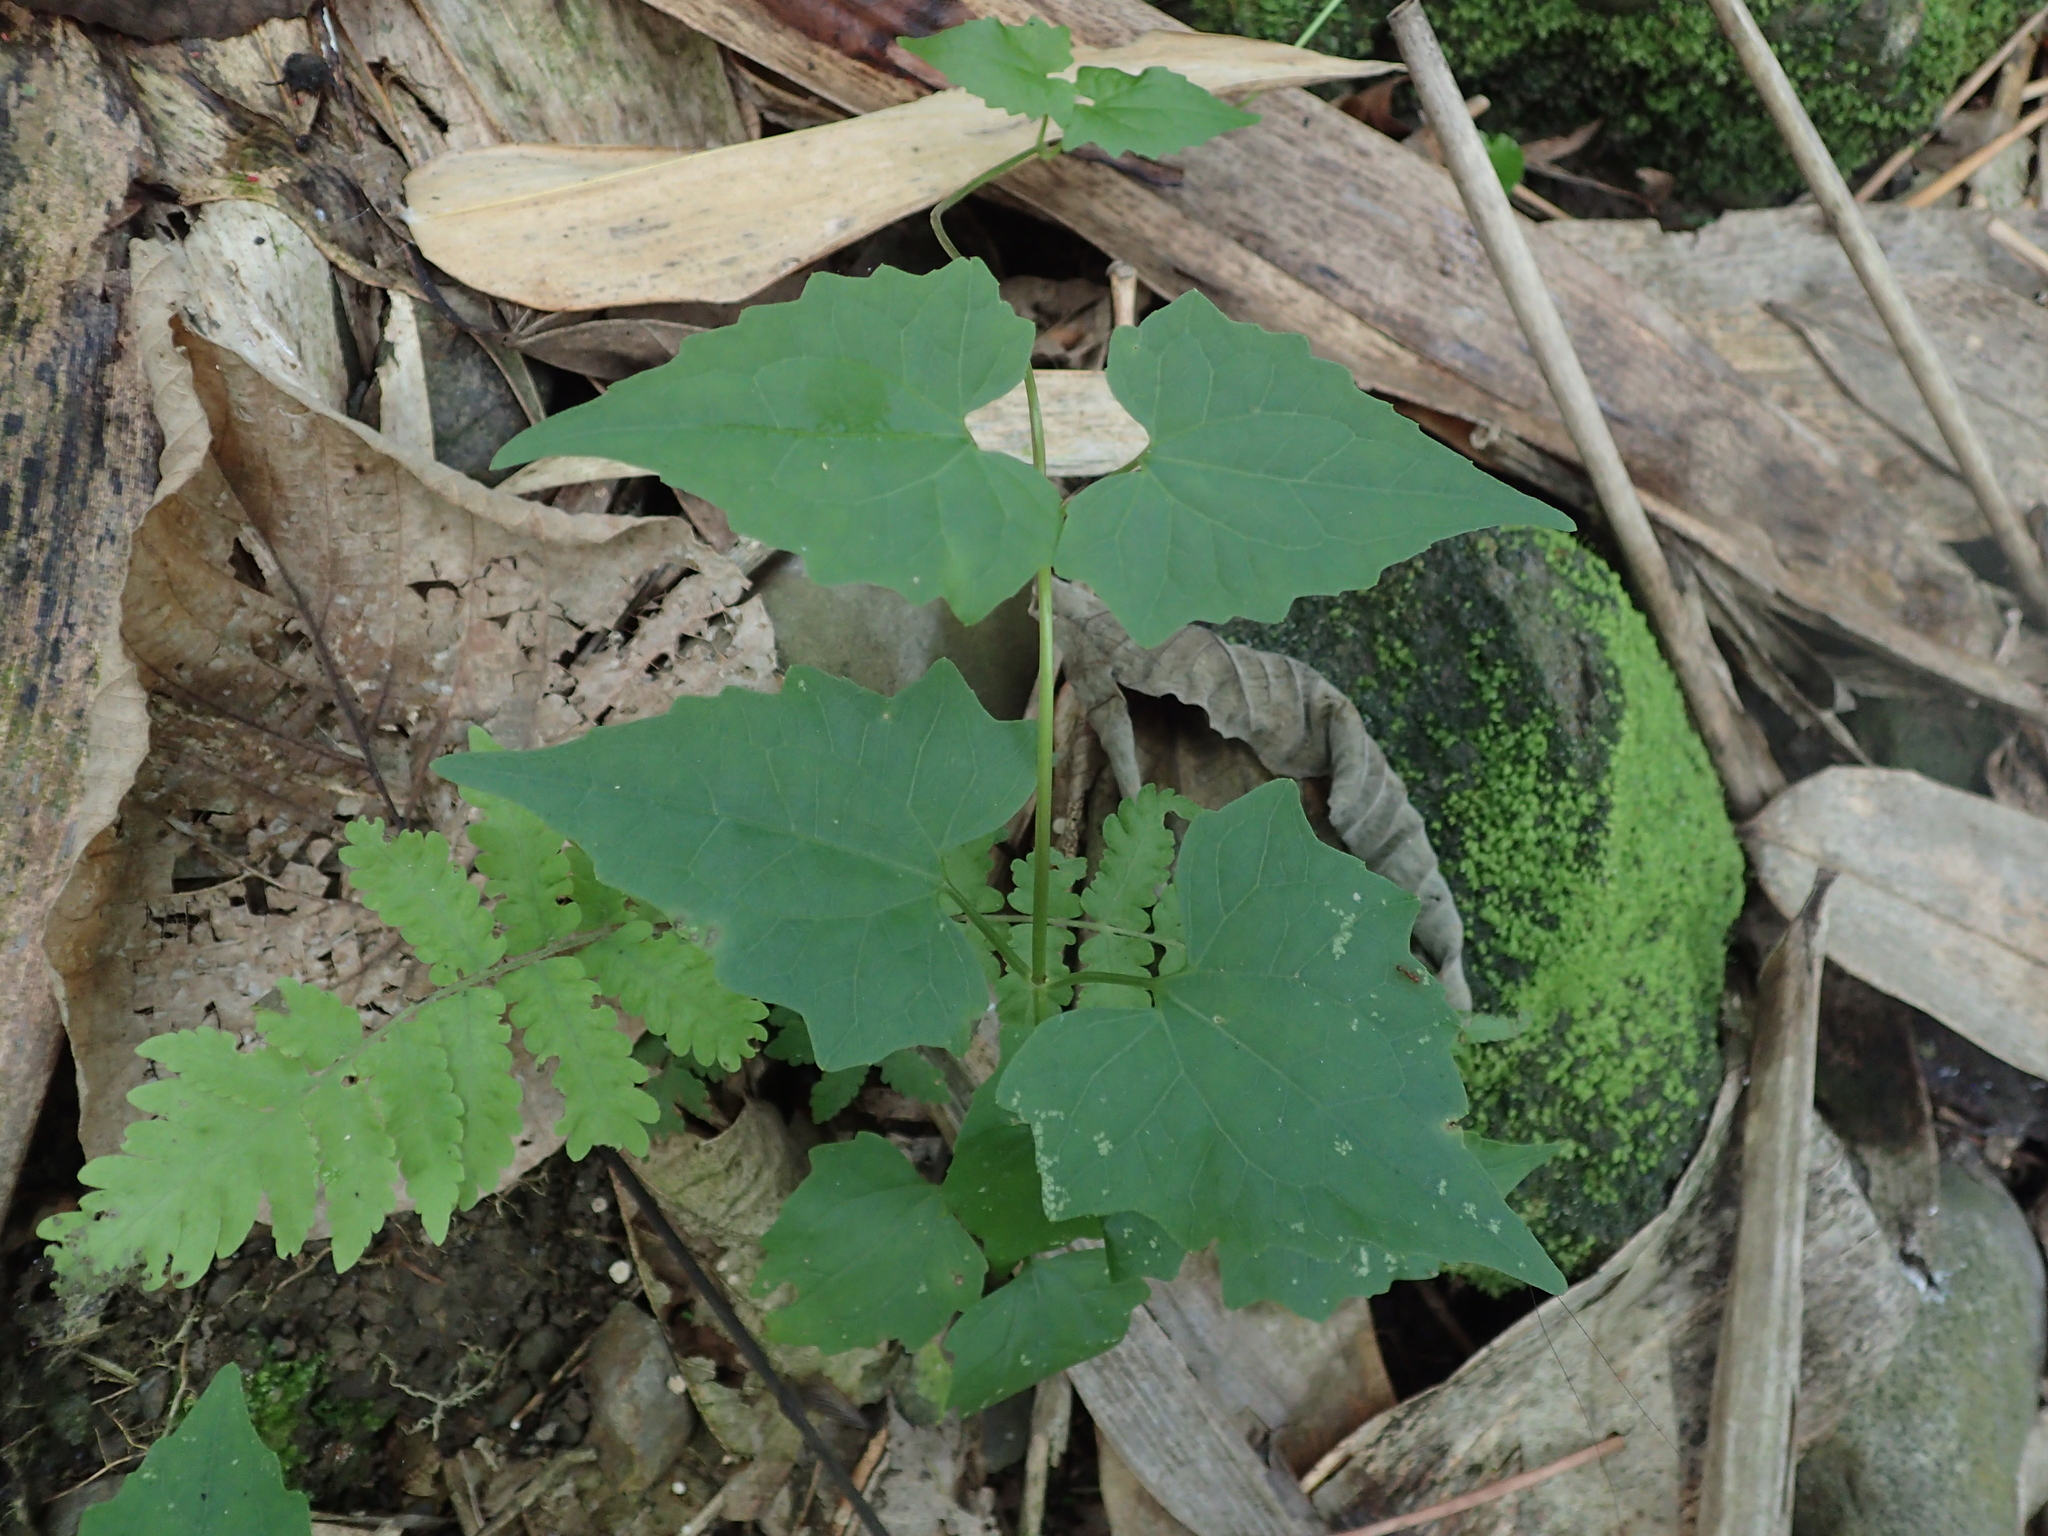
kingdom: Plantae
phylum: Tracheophyta
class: Magnoliopsida
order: Asterales
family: Asteraceae
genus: Mikania
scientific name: Mikania micrantha
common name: Mile-a-minute
